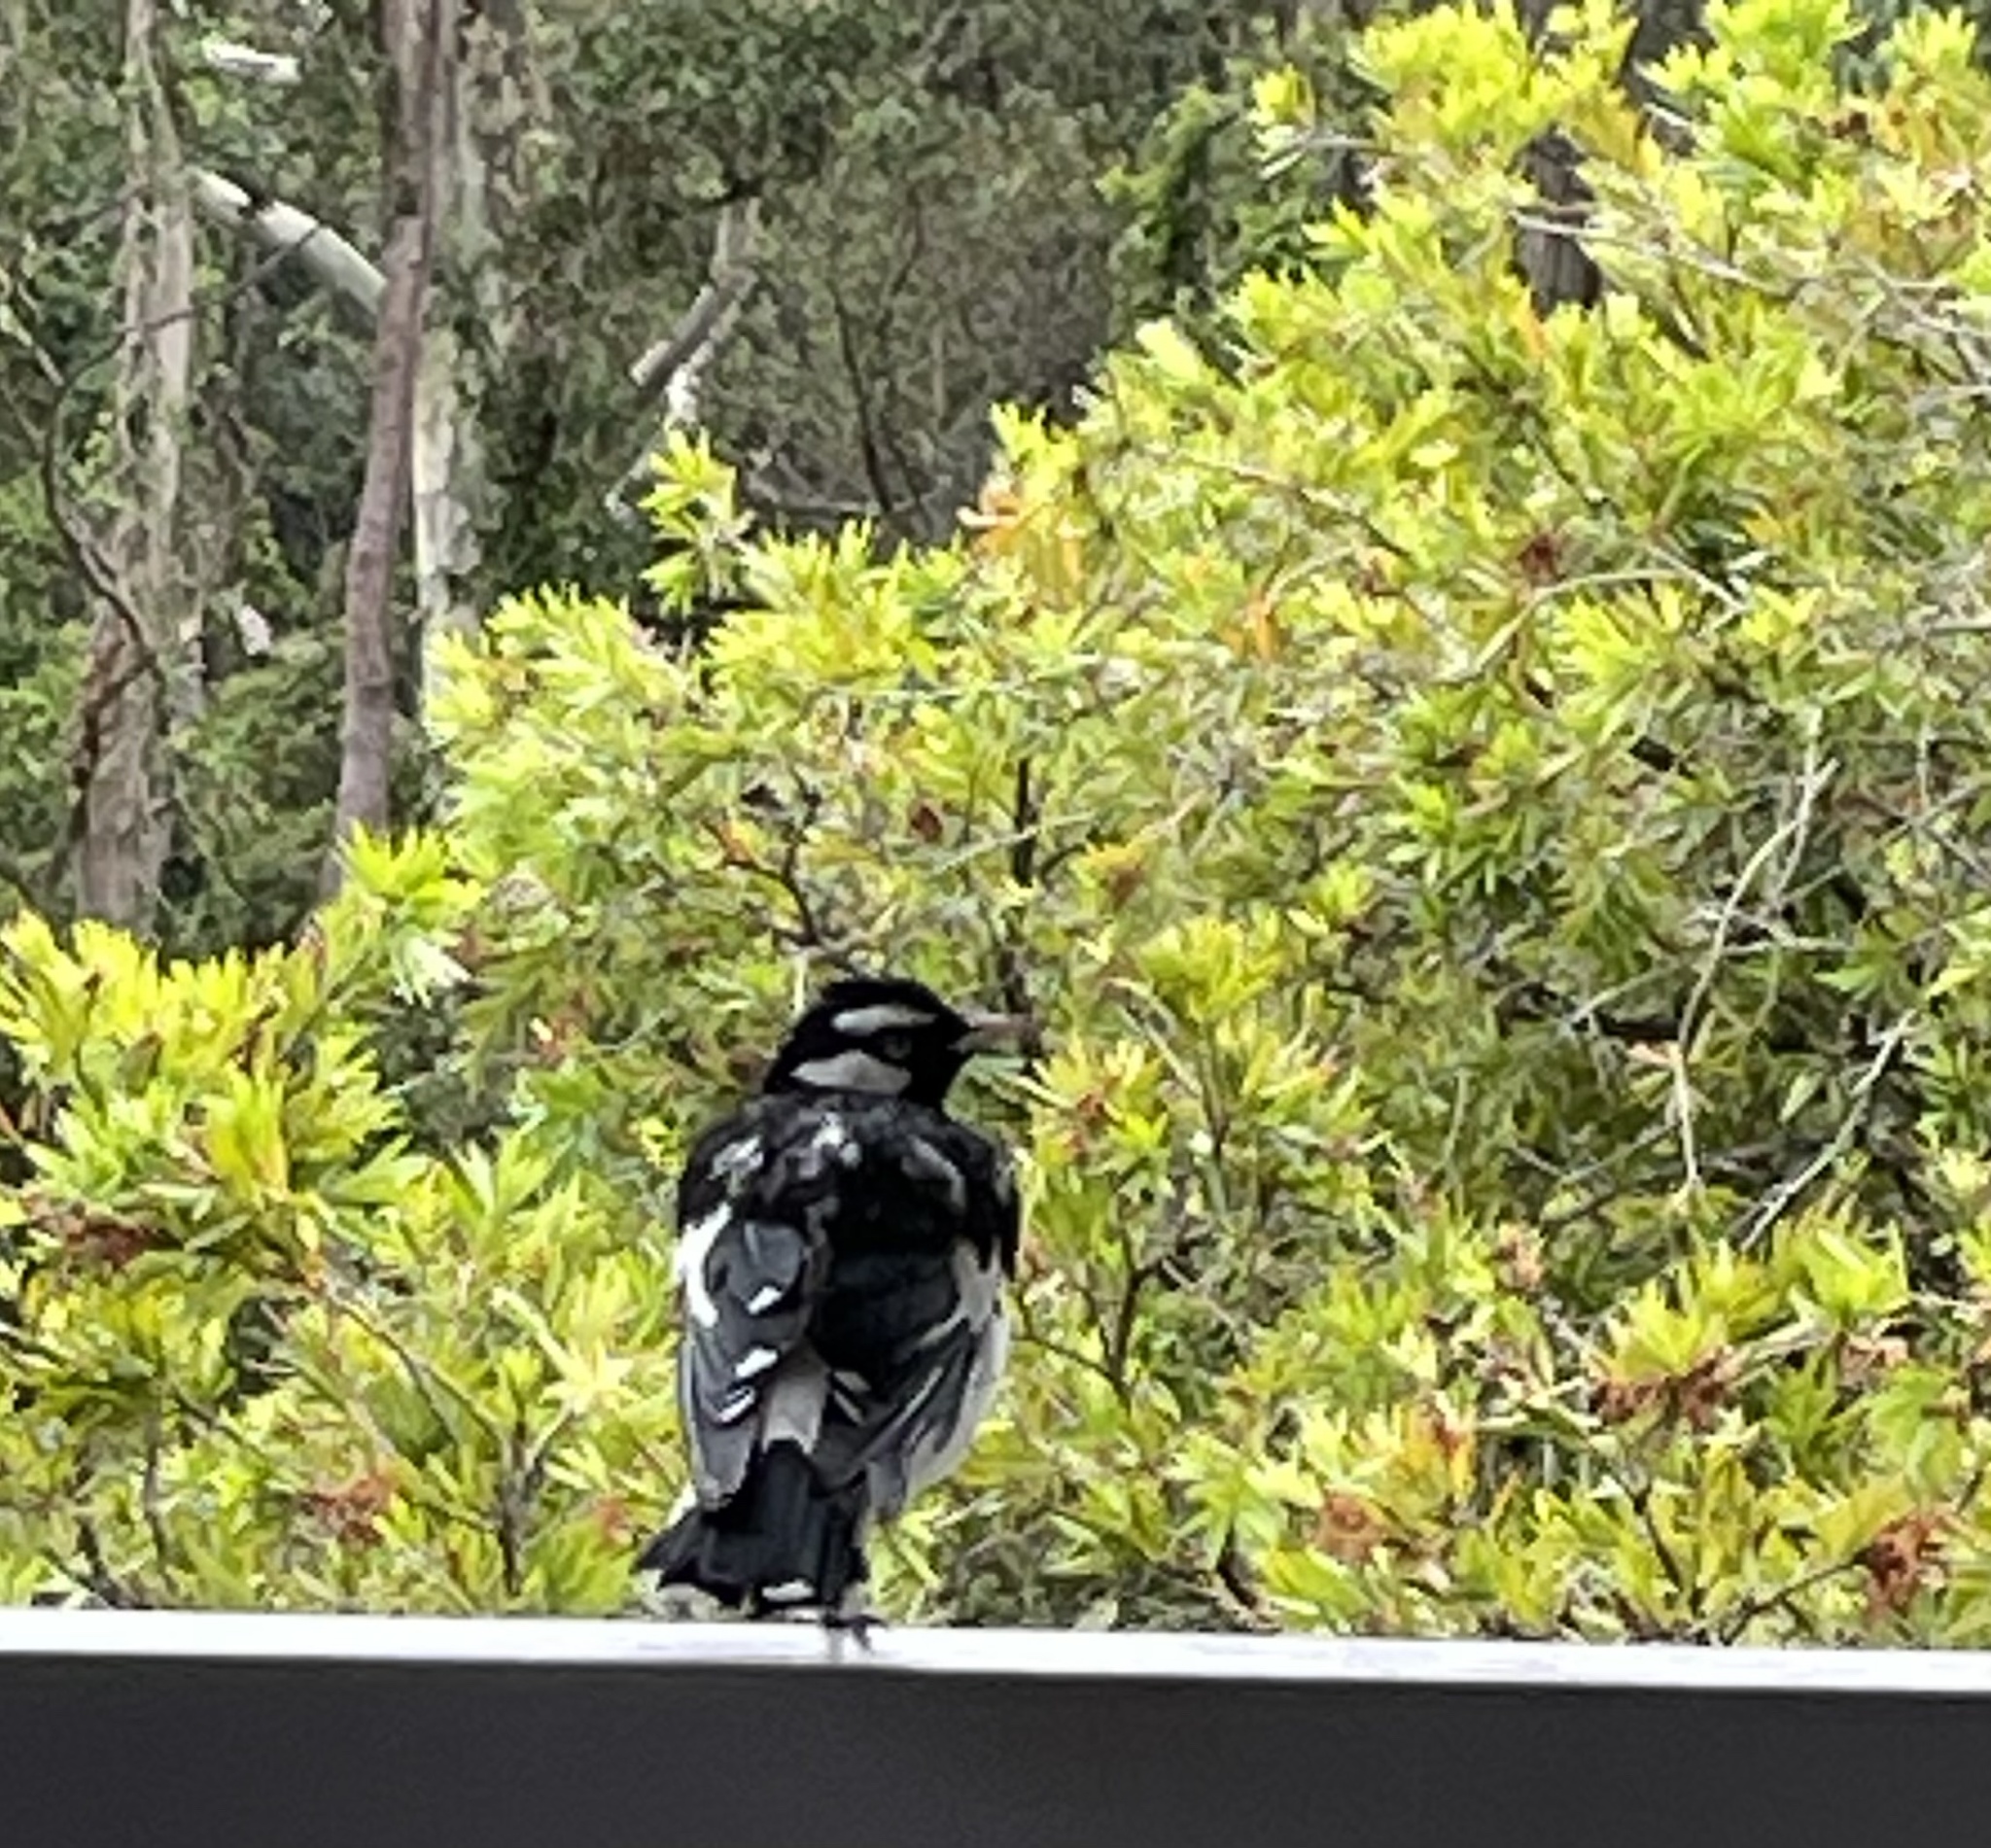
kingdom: Animalia
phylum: Chordata
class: Aves
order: Passeriformes
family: Monarchidae
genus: Grallina
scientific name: Grallina cyanoleuca
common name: Magpie-lark
